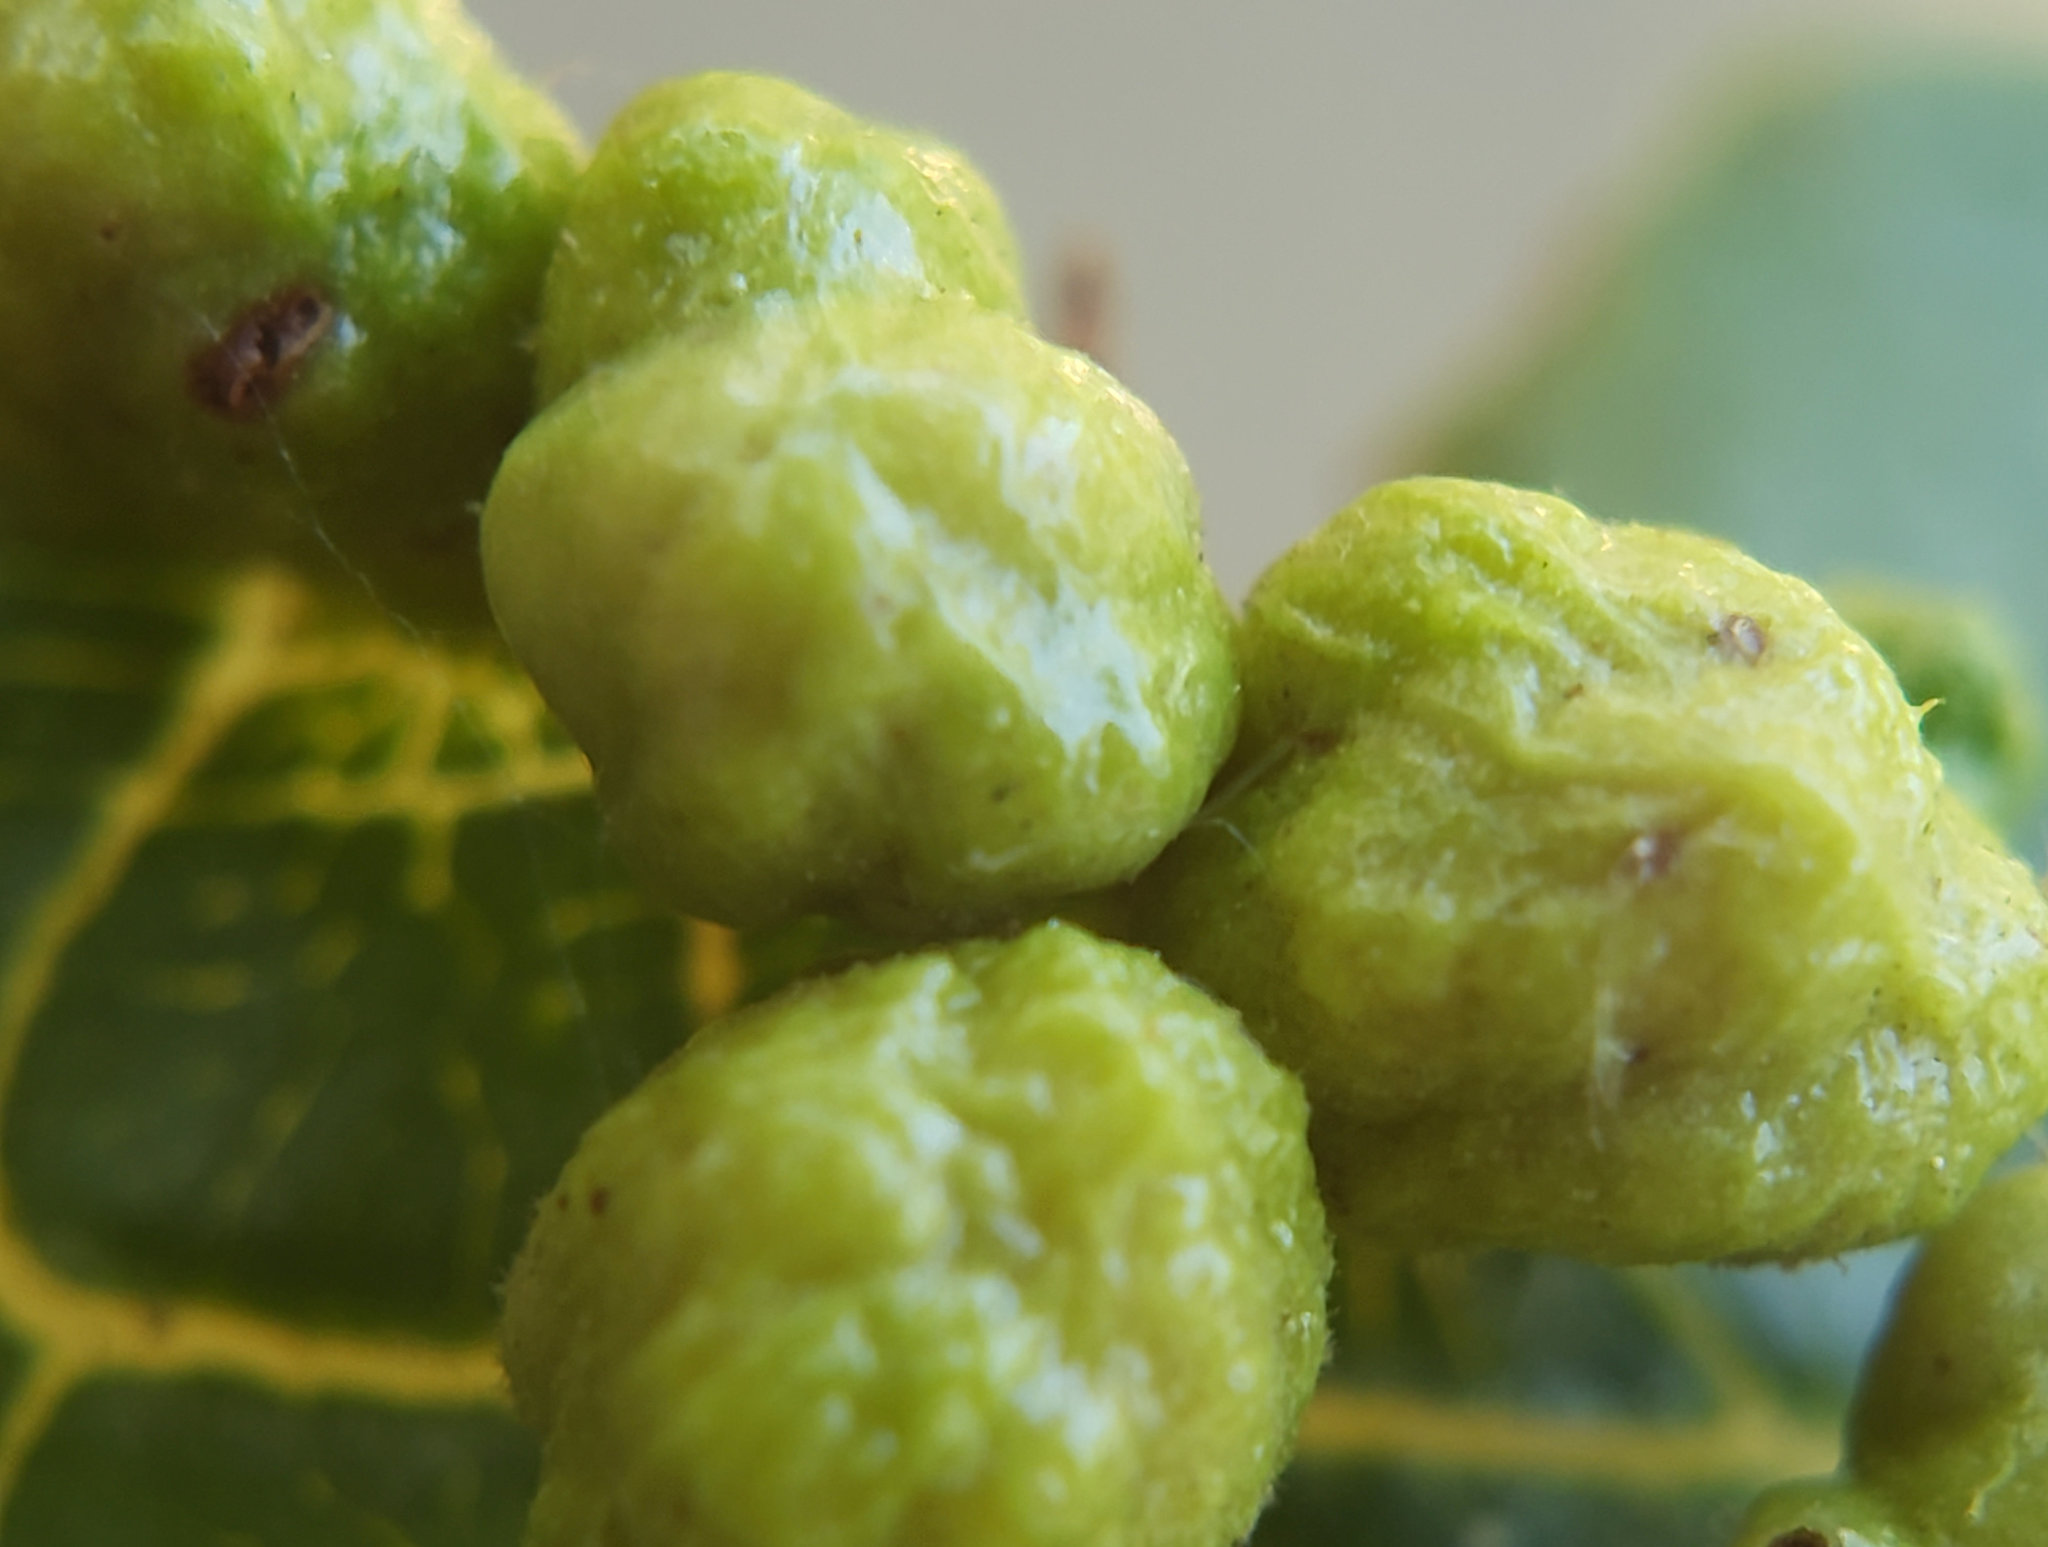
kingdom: Animalia
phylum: Arthropoda
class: Arachnida
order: Trombidiformes
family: Eriophyidae
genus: Aceria
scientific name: Aceria brachytarsus
